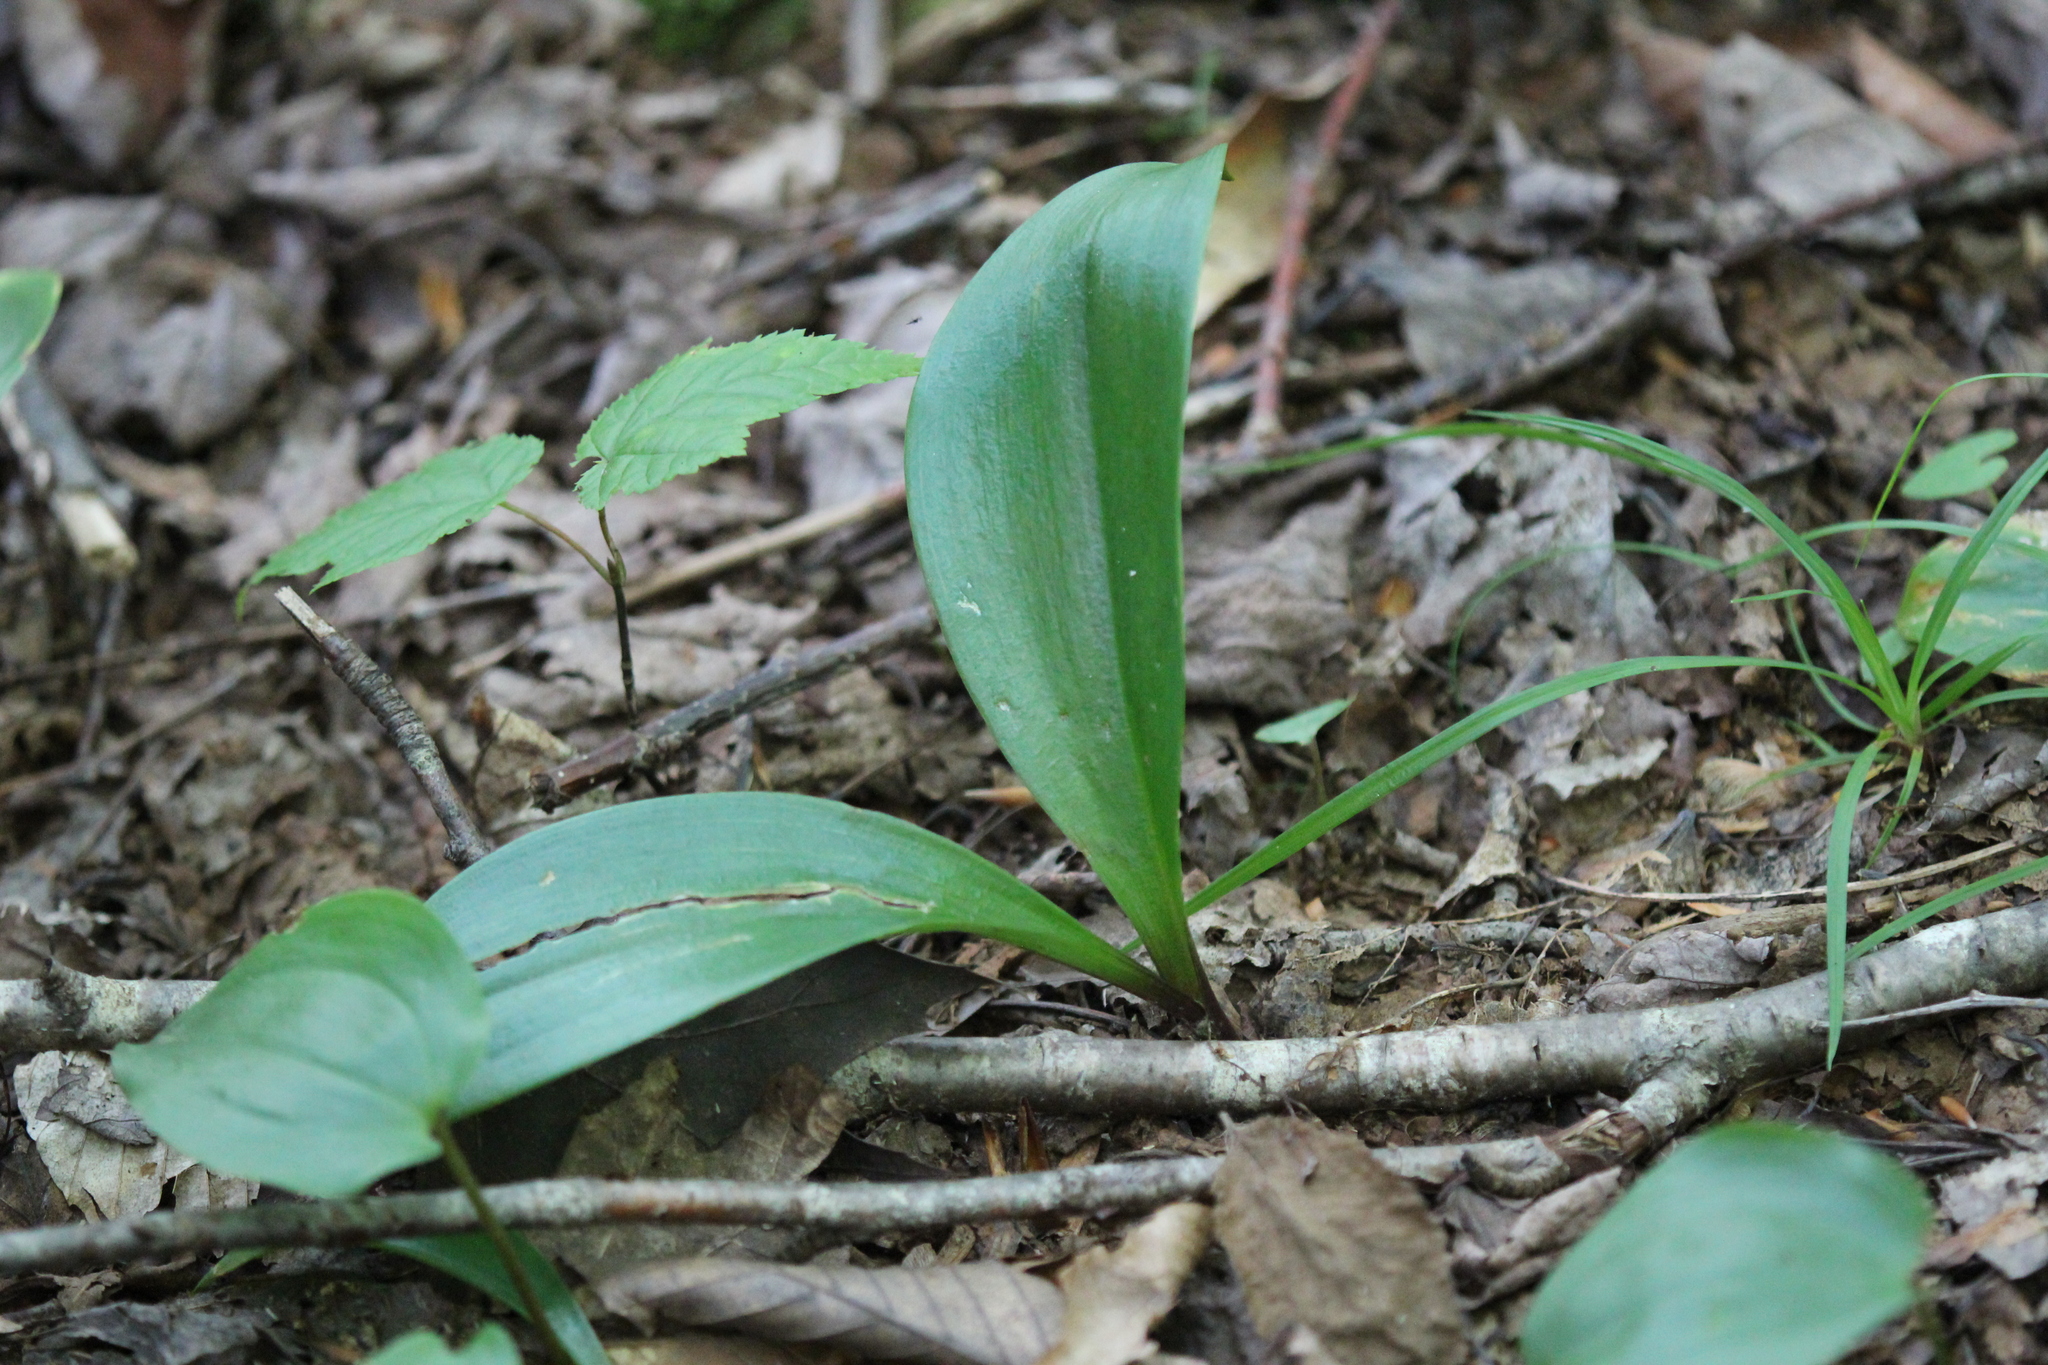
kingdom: Plantae
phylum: Tracheophyta
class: Liliopsida
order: Liliales
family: Liliaceae
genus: Clintonia
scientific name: Clintonia borealis
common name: Yellow clintonia
